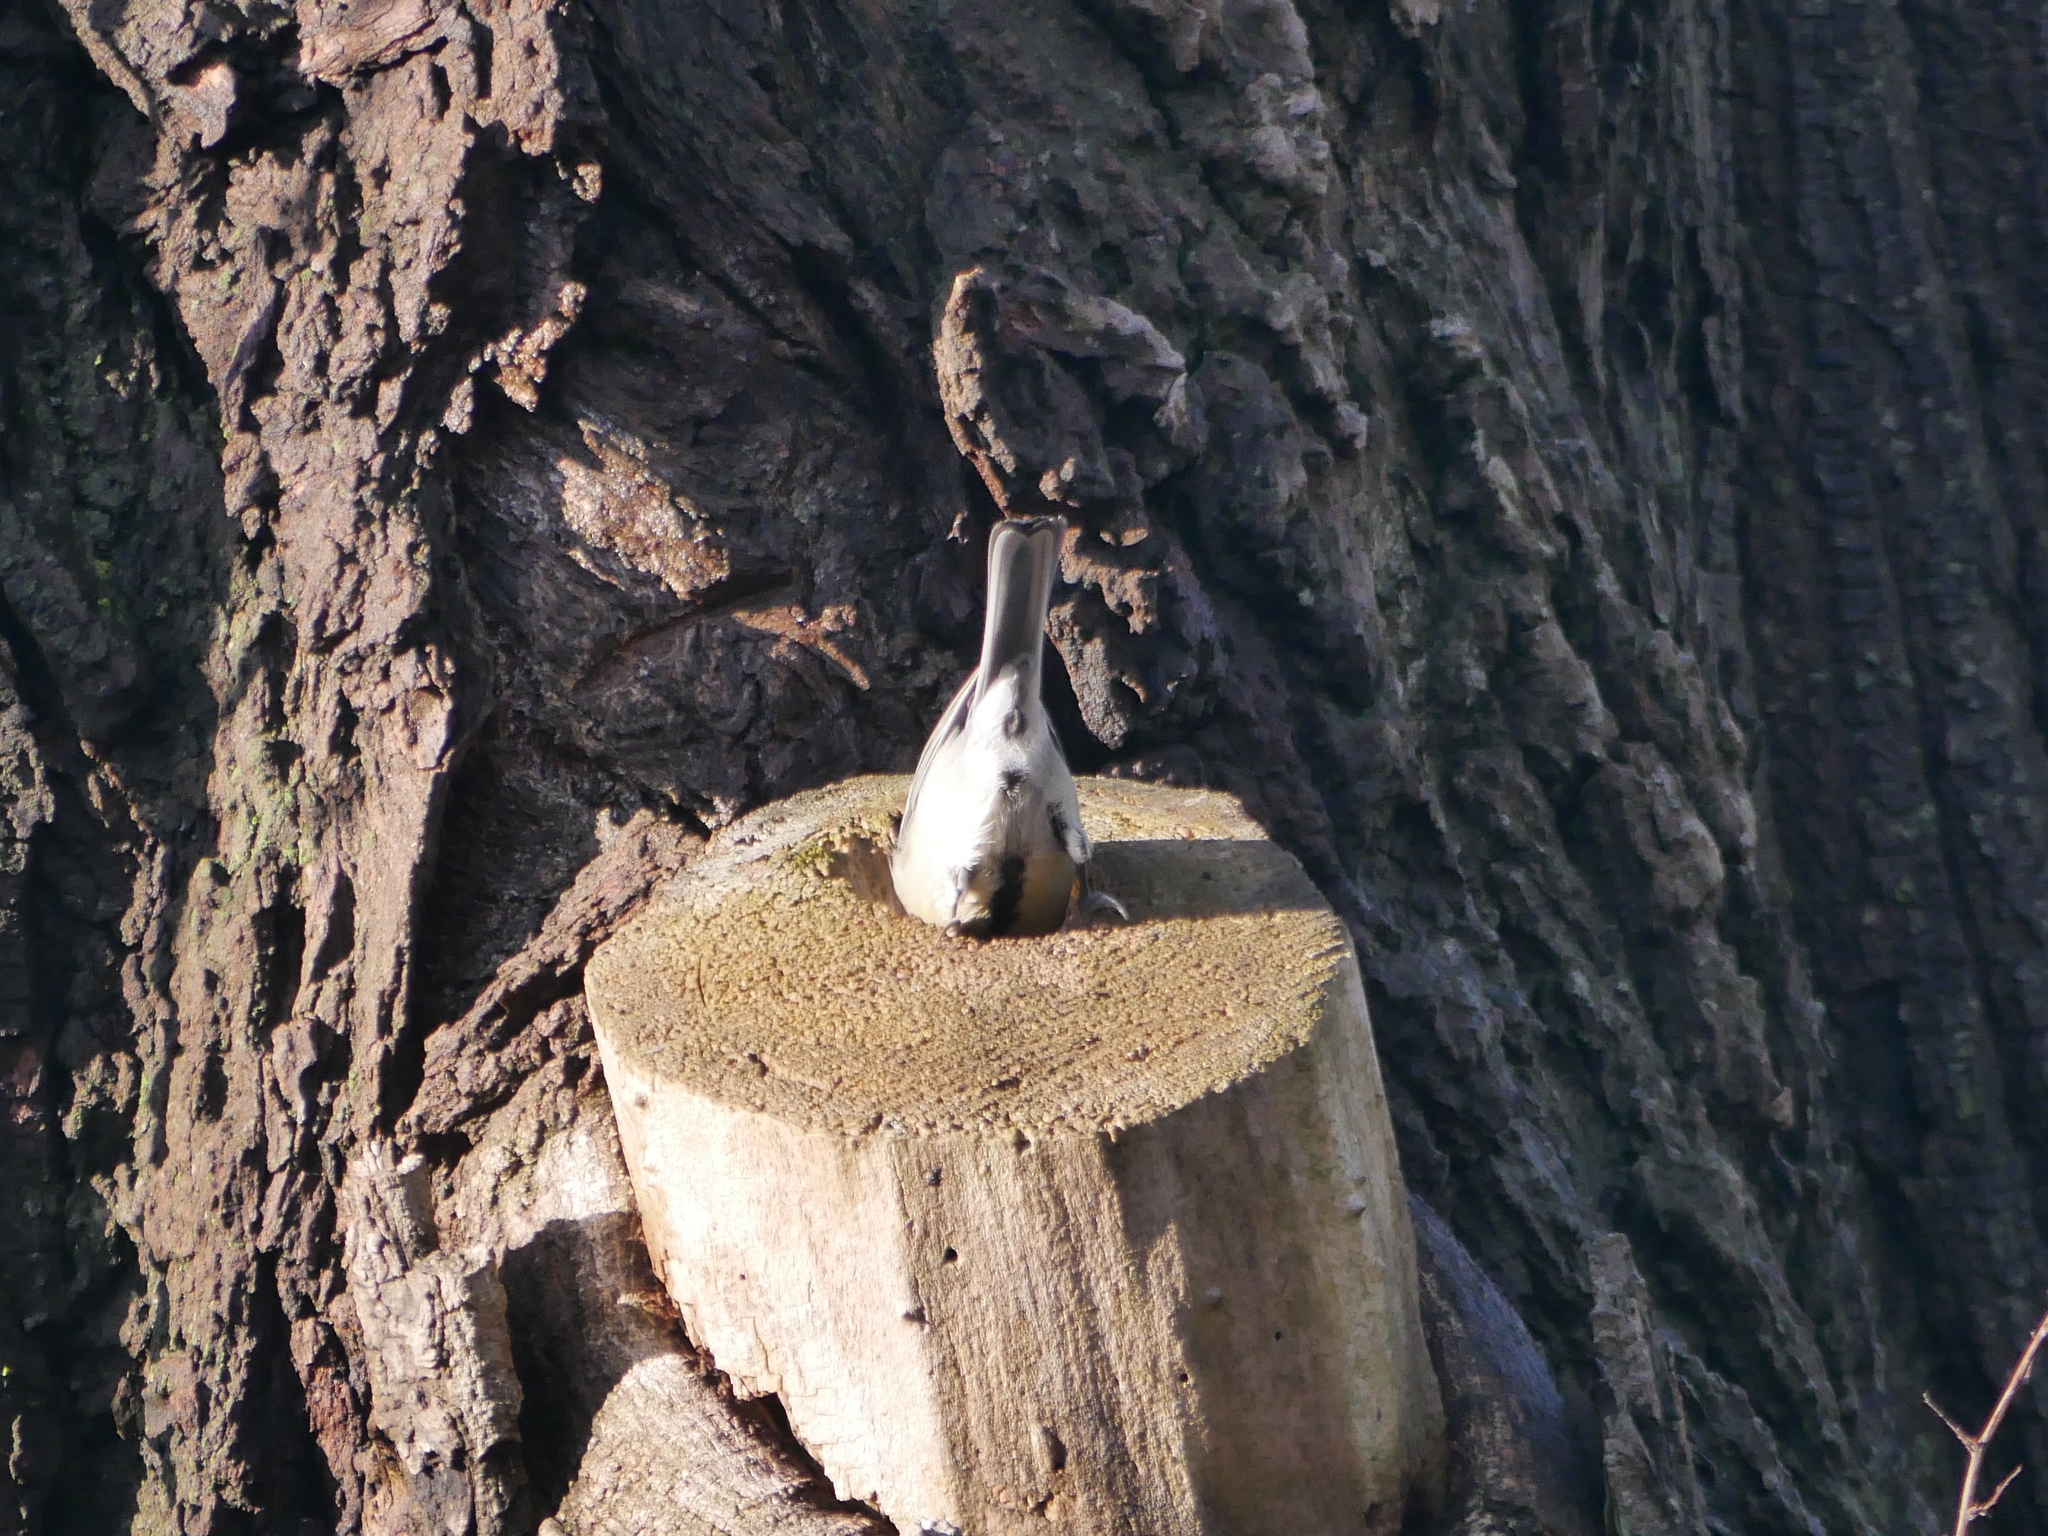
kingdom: Animalia
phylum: Chordata
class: Aves
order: Passeriformes
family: Paridae
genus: Parus
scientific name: Parus major
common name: Great tit
